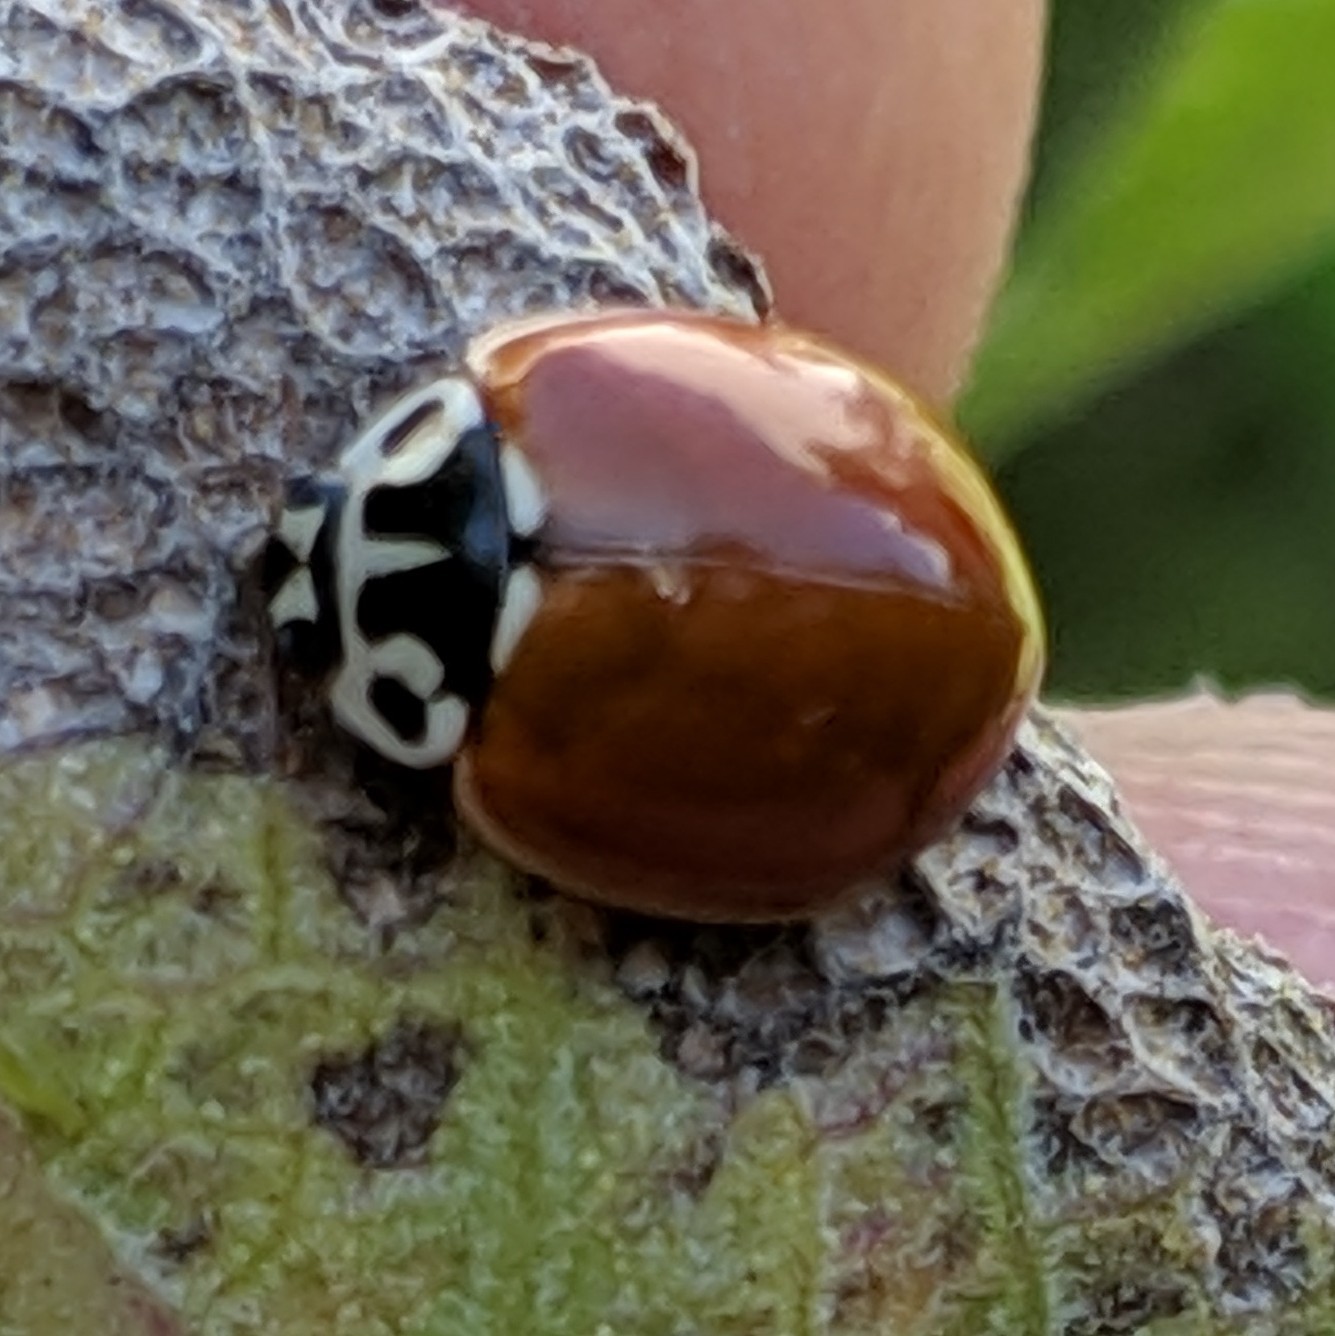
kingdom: Animalia
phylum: Arthropoda
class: Insecta
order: Coleoptera
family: Coccinellidae
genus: Cycloneda
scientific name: Cycloneda polita
